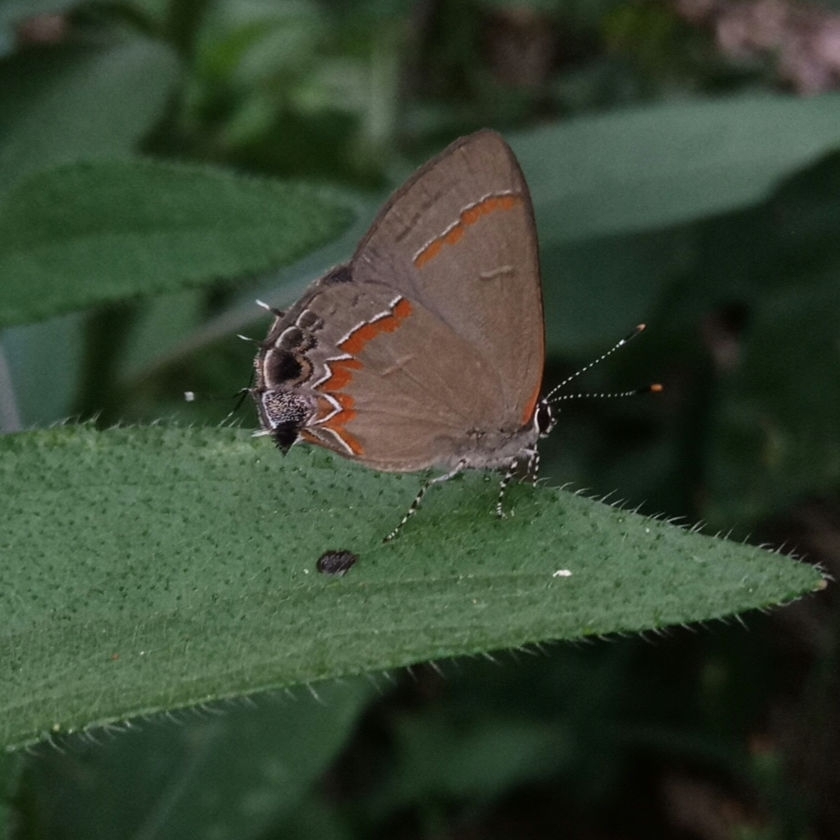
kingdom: Animalia
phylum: Arthropoda
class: Insecta
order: Lepidoptera
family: Lycaenidae
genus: Calycopis
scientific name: Calycopis cecrops
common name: Red-banded hairstreak
